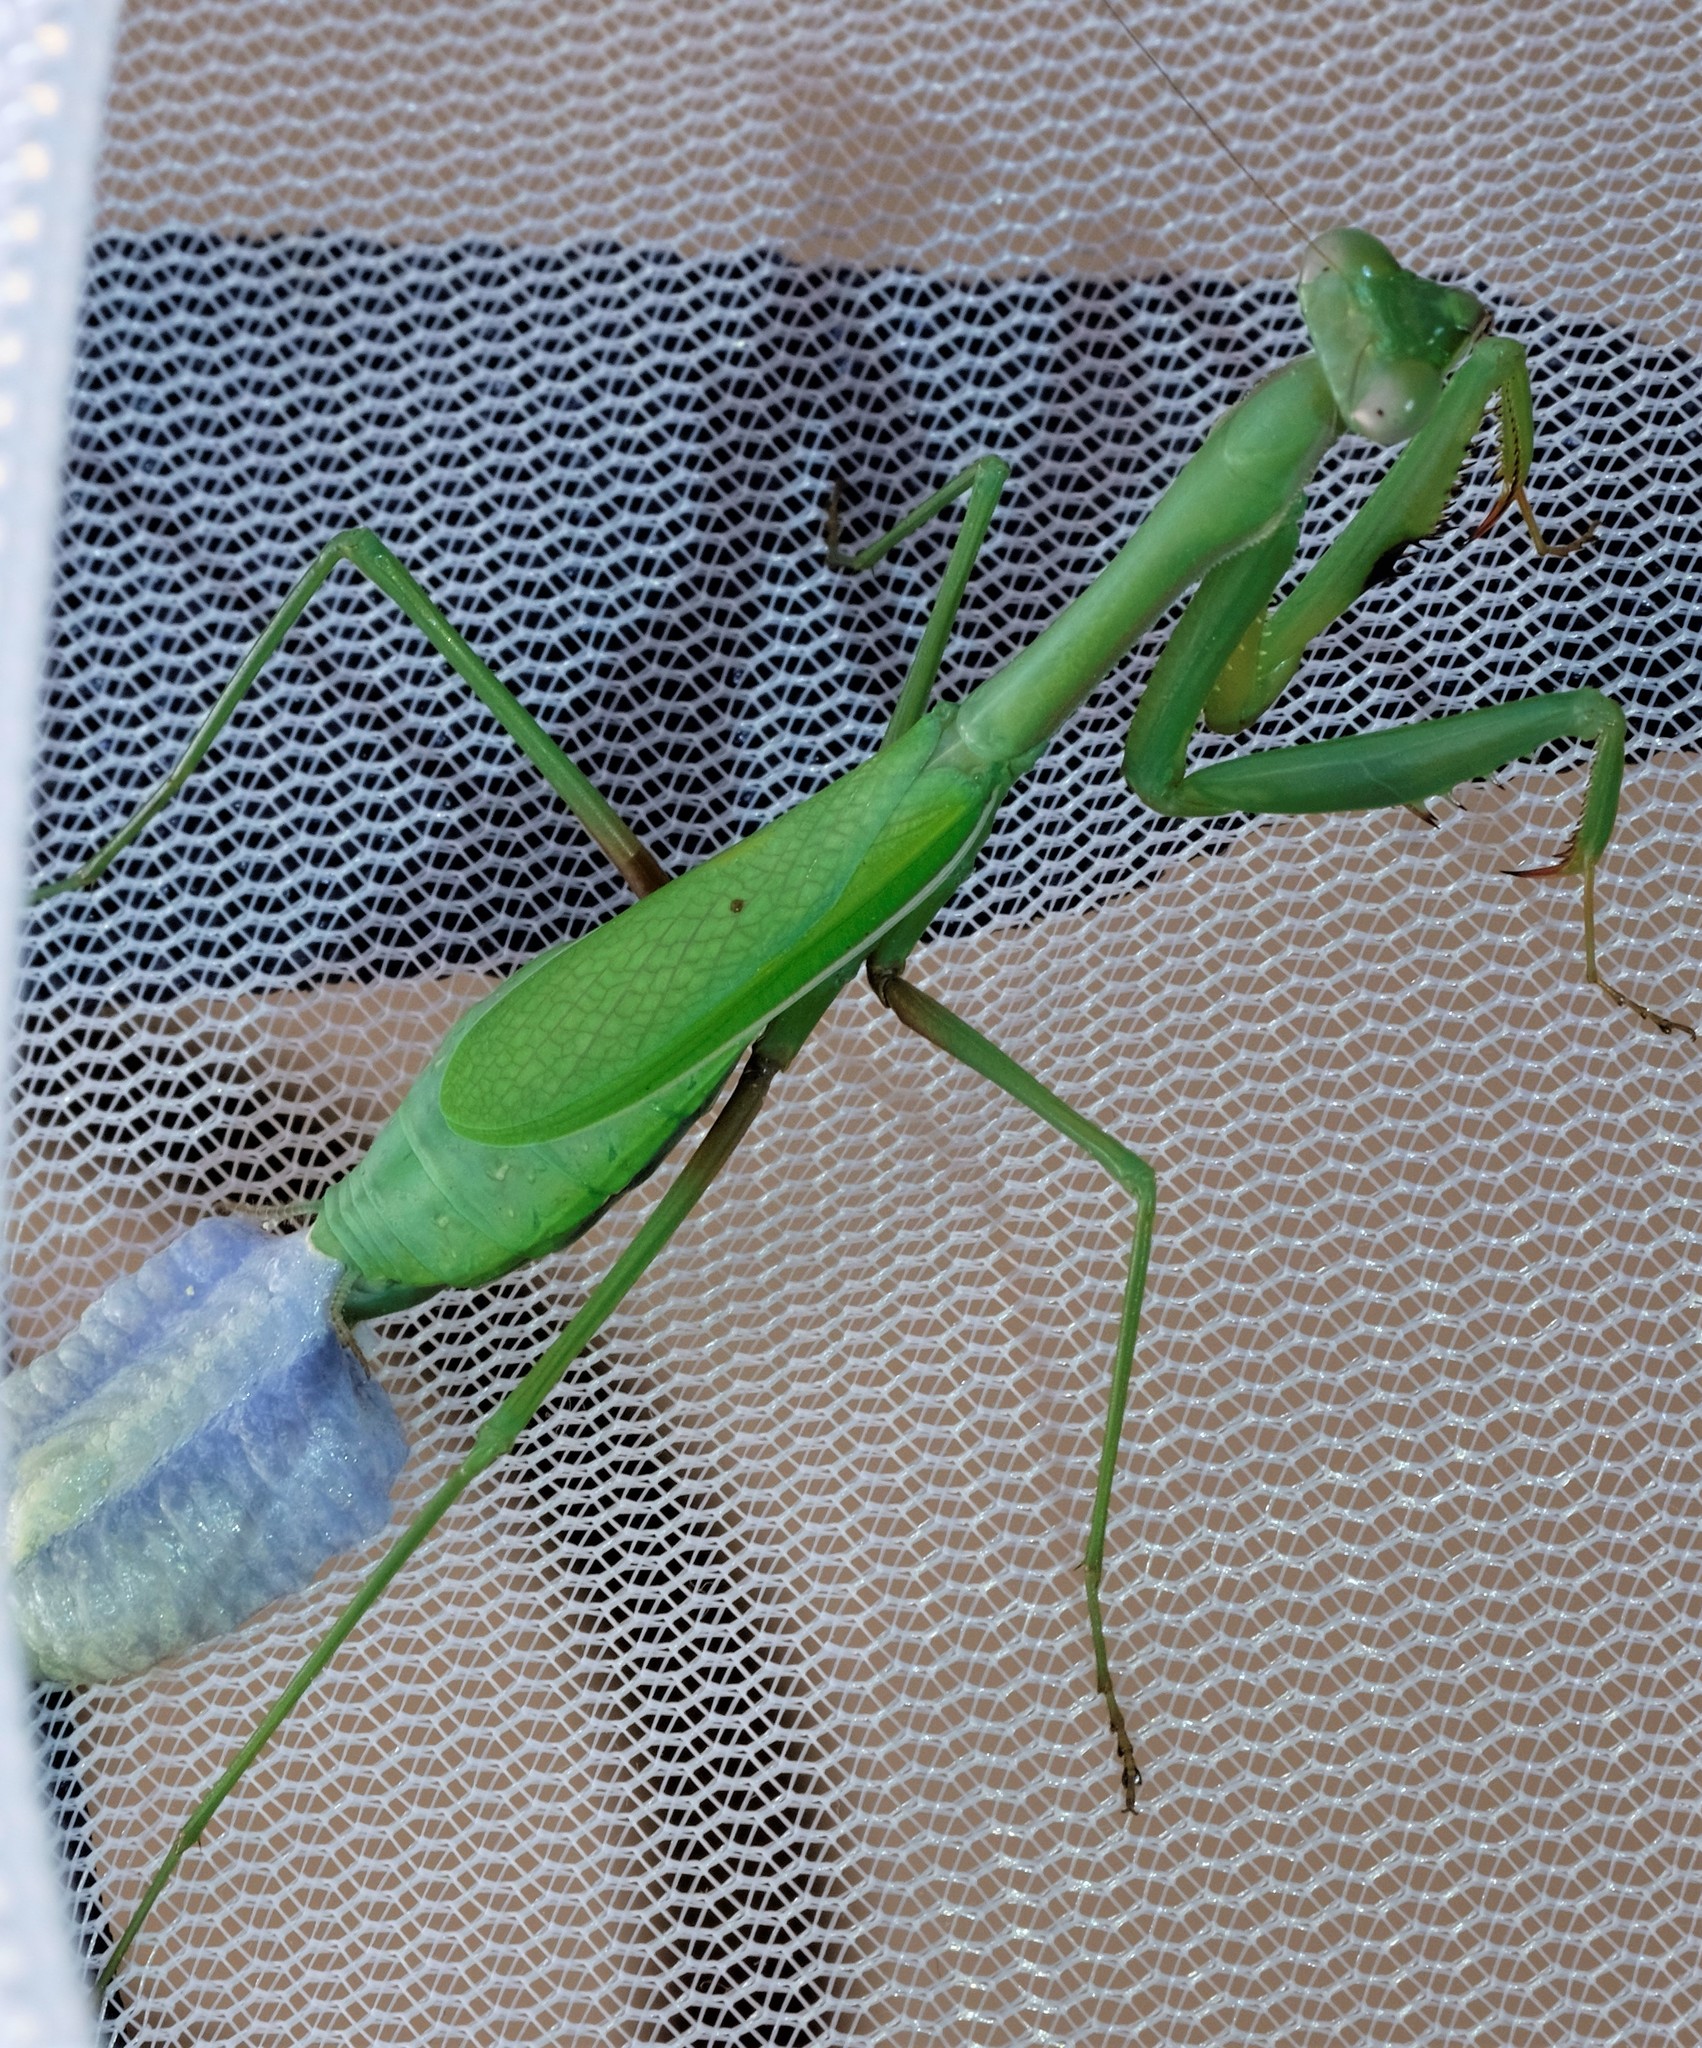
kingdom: Animalia
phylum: Arthropoda
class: Insecta
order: Mantodea
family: Mantidae
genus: Pseudomantis
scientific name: Pseudomantis albofimbriata
